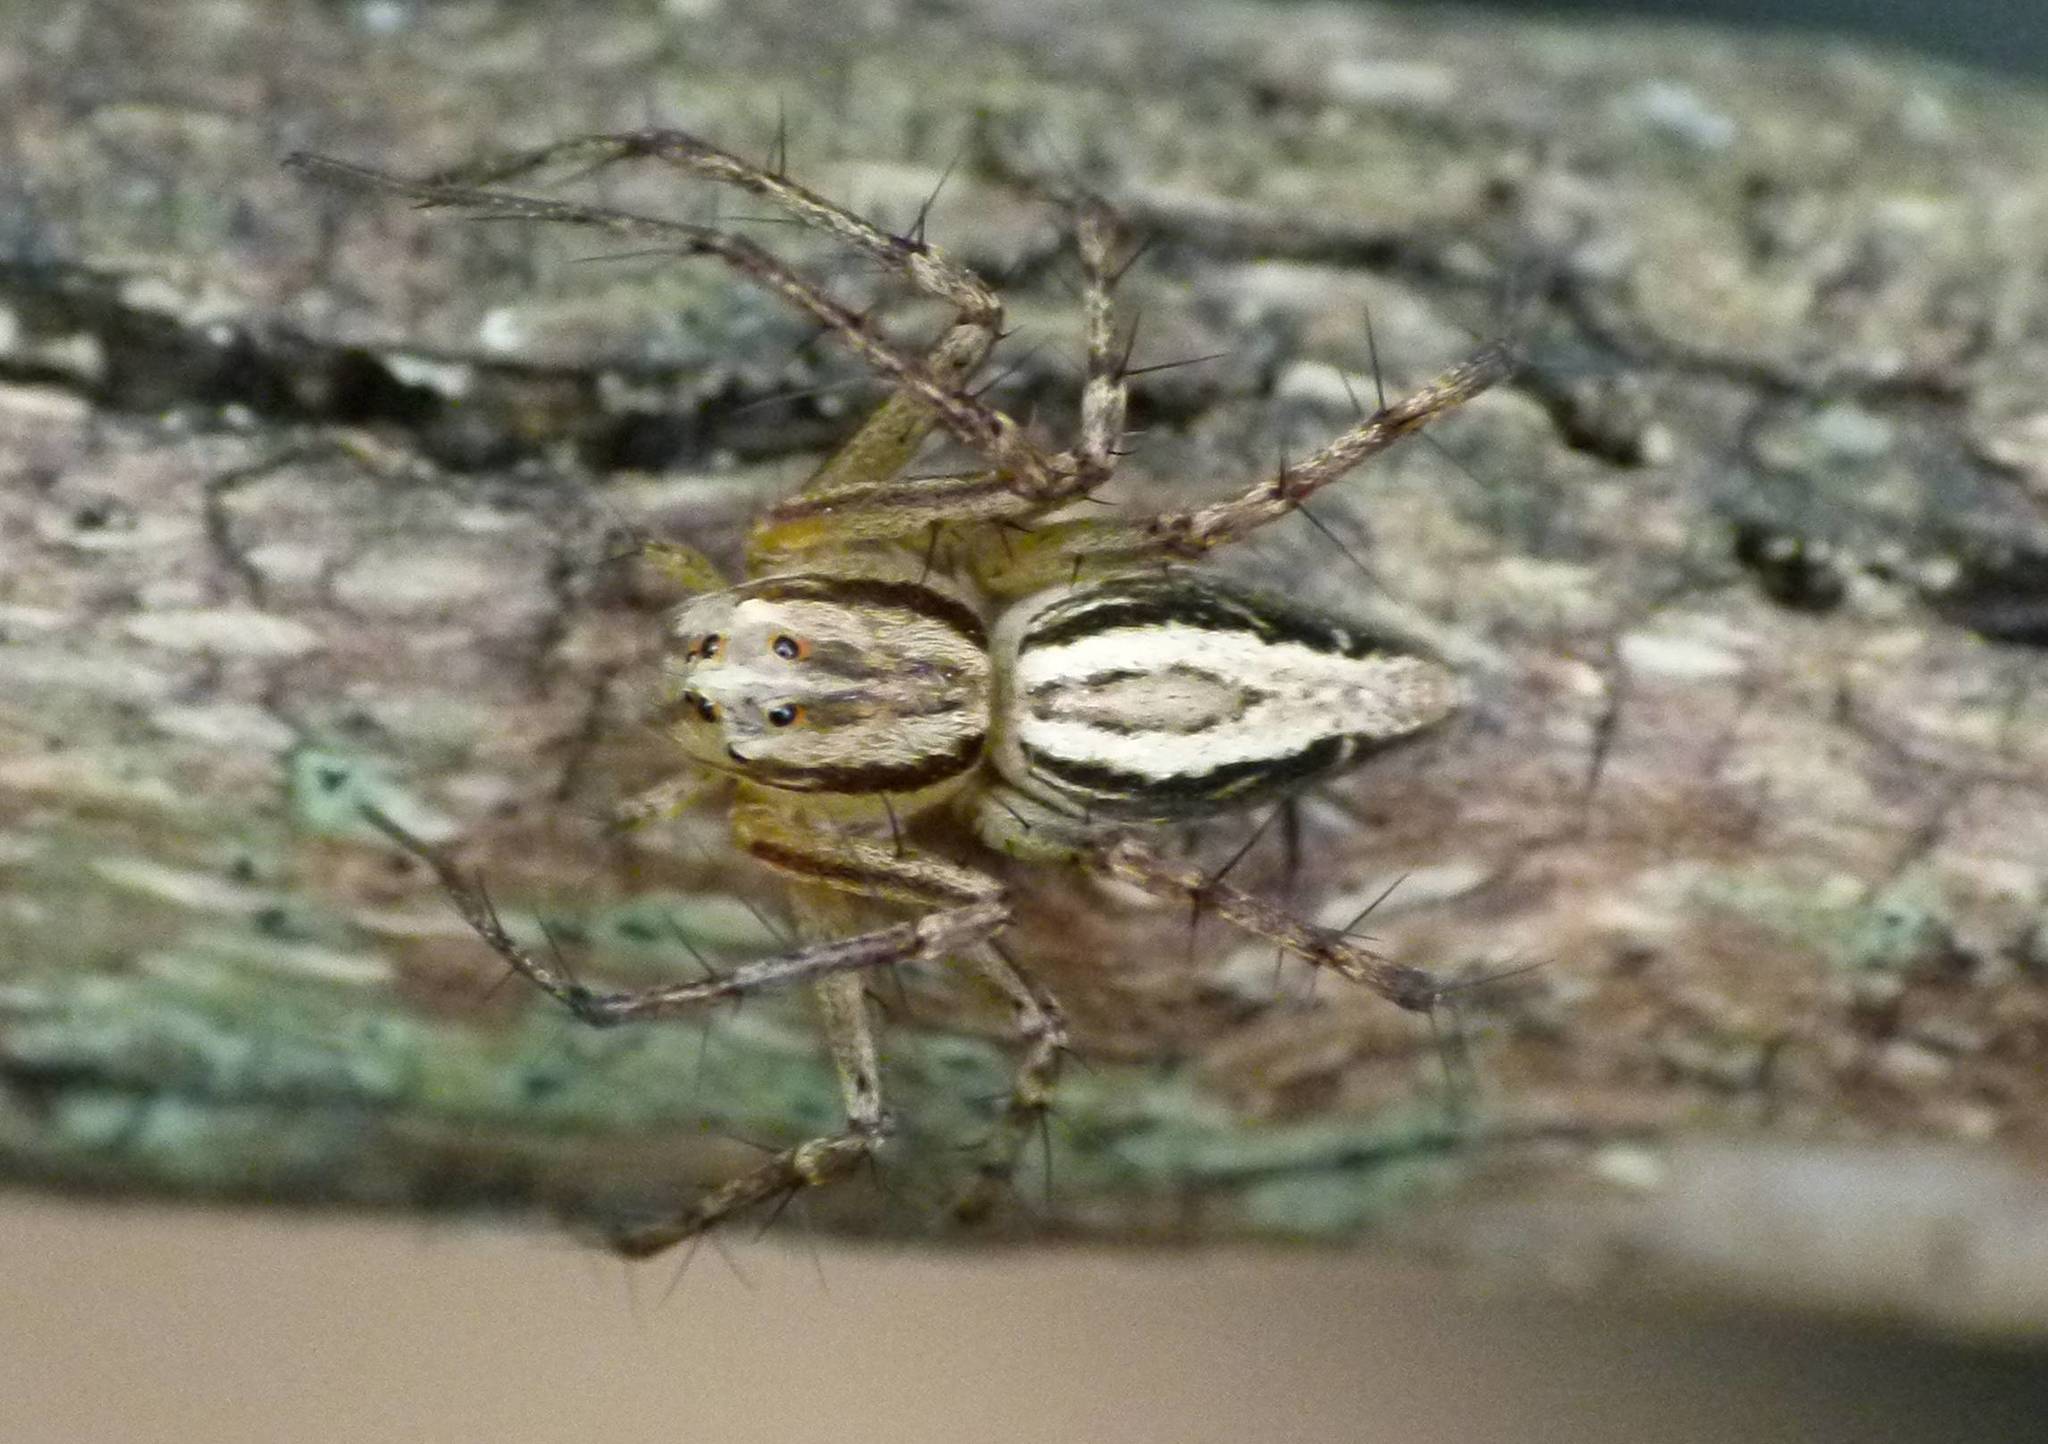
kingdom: Animalia
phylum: Arthropoda
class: Arachnida
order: Araneae
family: Oxyopidae
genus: Oxyopes
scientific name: Oxyopes elegans
